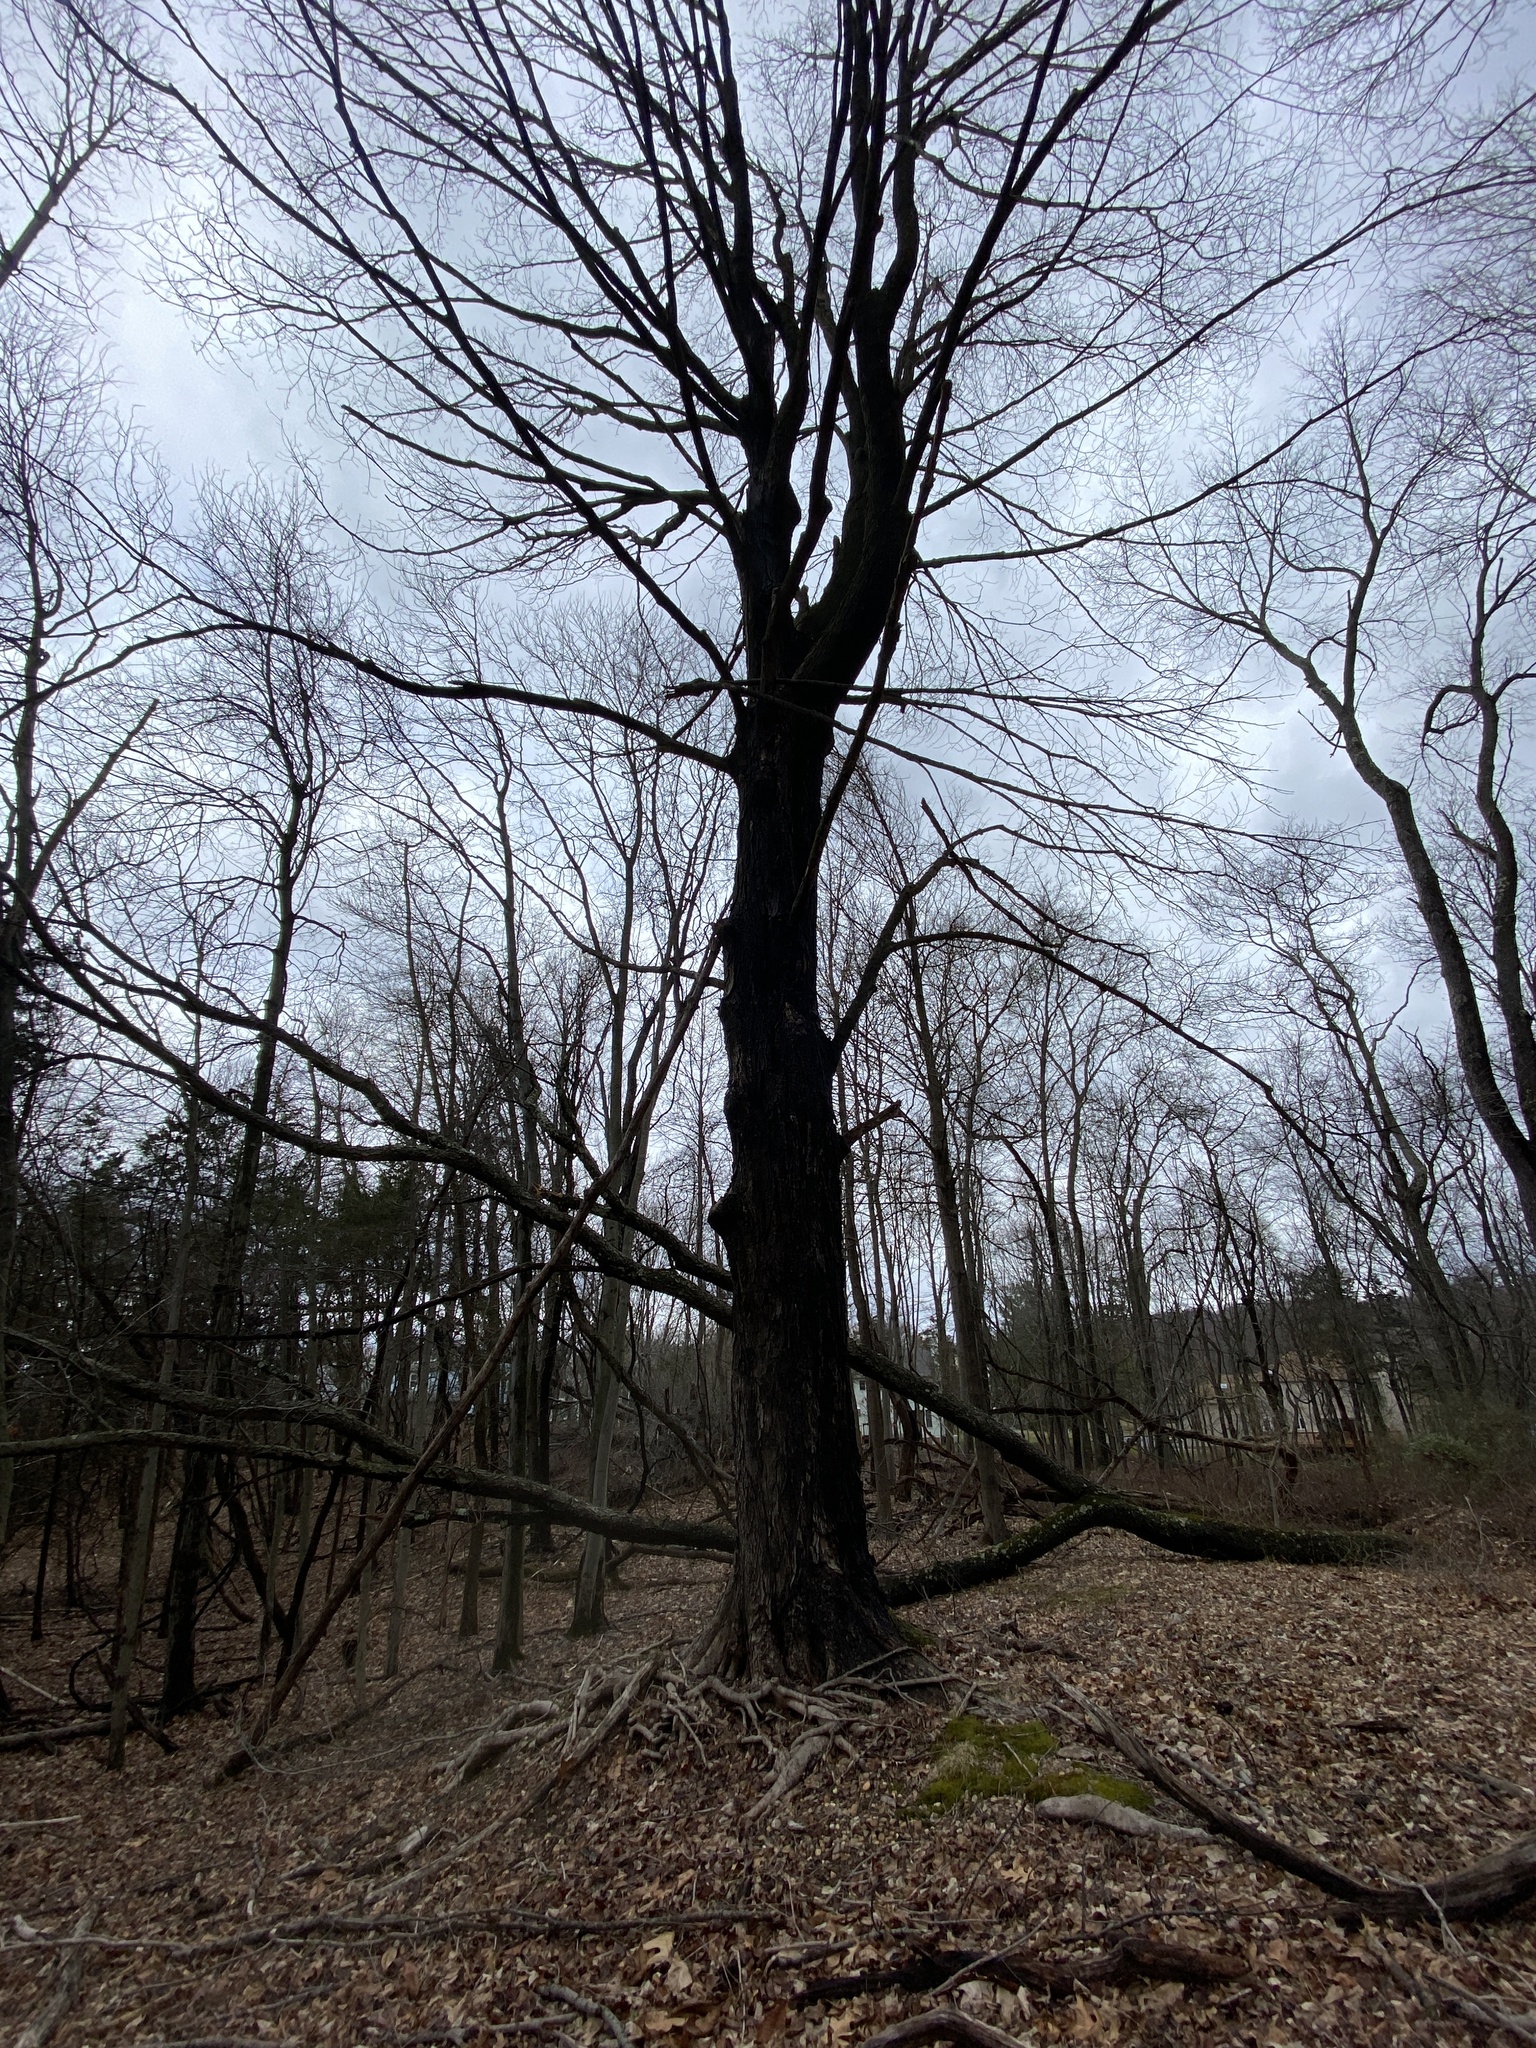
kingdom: Plantae
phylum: Tracheophyta
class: Magnoliopsida
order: Sapindales
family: Sapindaceae
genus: Acer
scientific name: Acer saccharum
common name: Sugar maple
